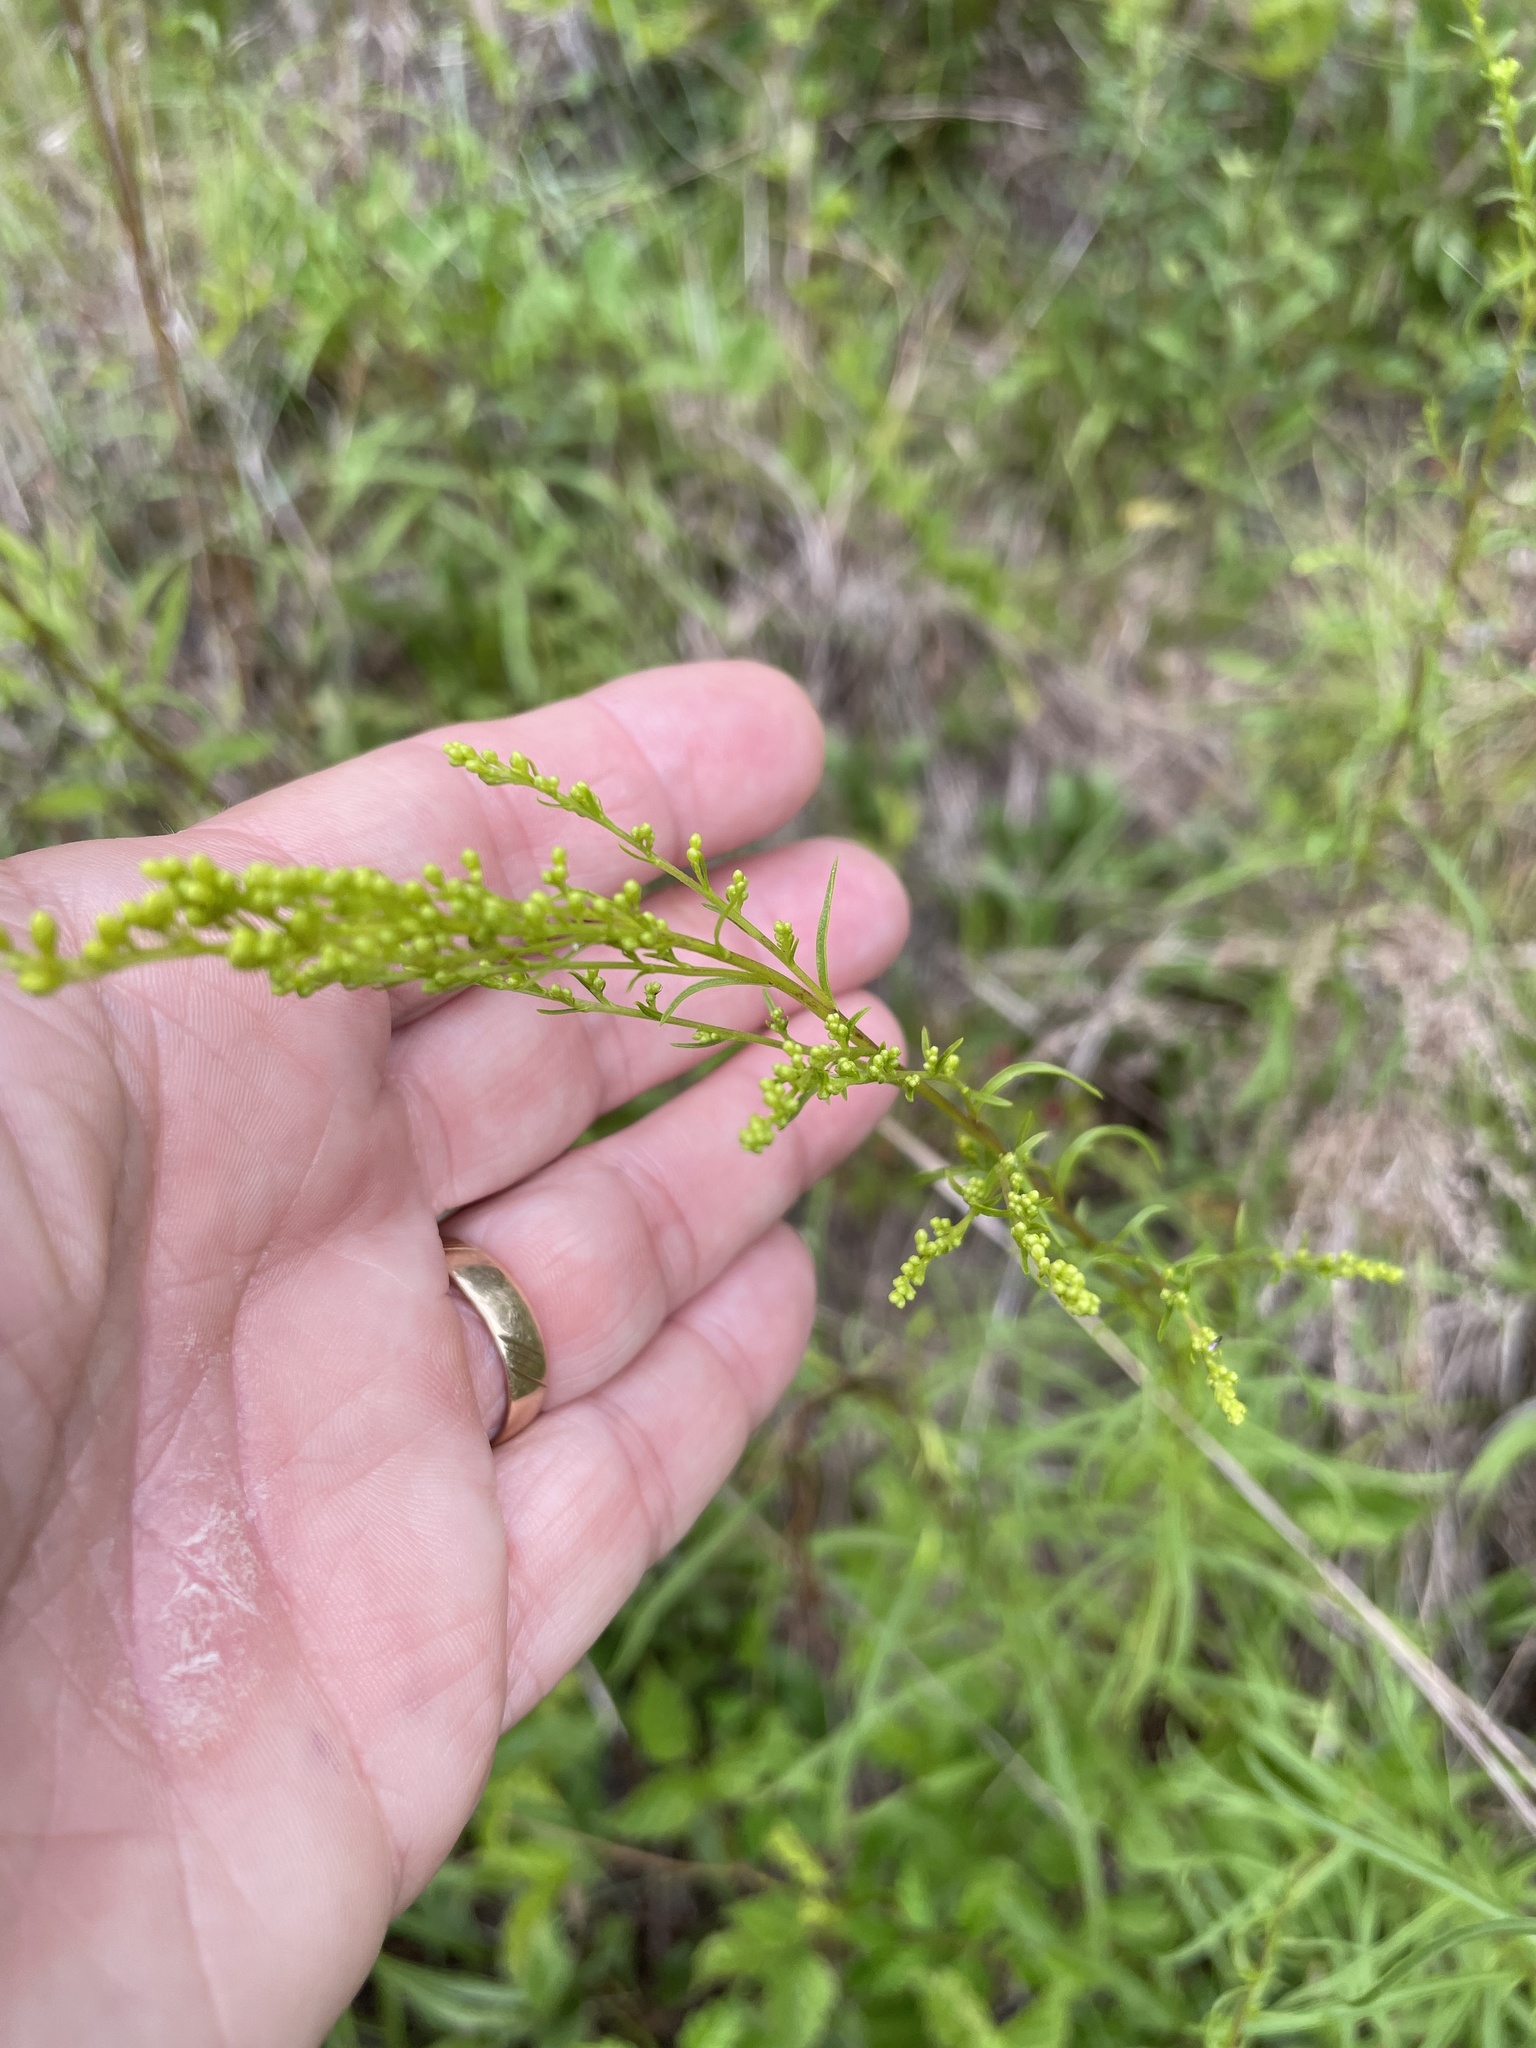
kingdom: Plantae
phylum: Tracheophyta
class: Magnoliopsida
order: Asterales
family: Asteraceae
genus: Solidago
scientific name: Solidago pinetorum
